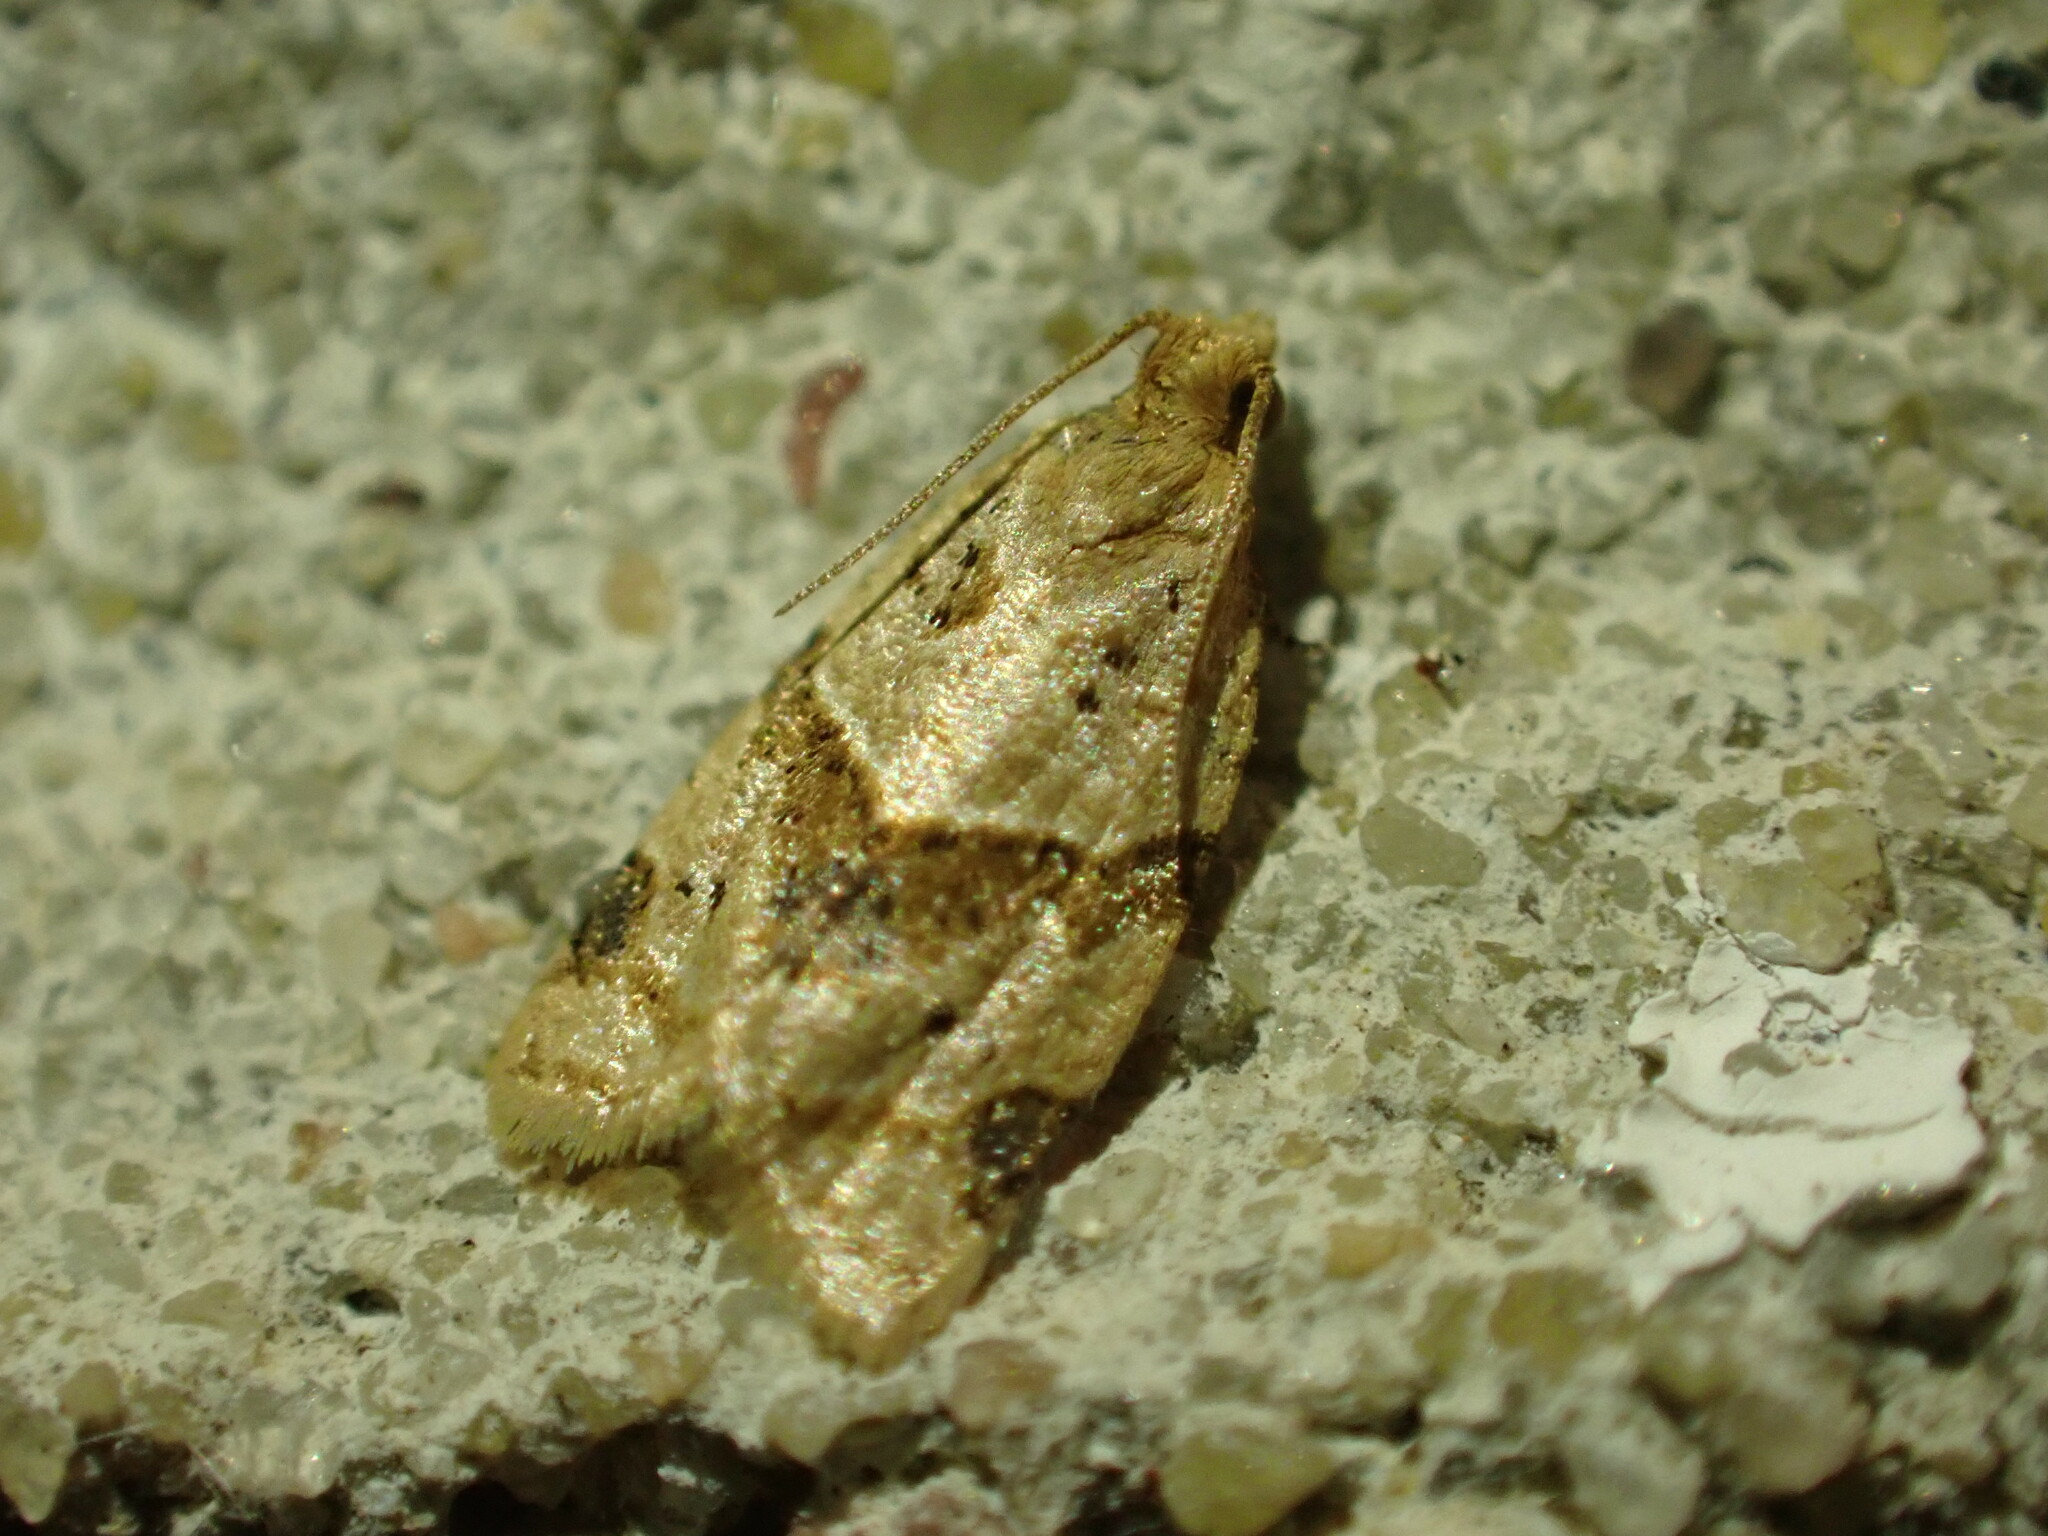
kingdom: Animalia
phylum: Arthropoda
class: Insecta
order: Lepidoptera
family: Tortricidae
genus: Clepsis
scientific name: Clepsis peritana
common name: Garden tortrix
